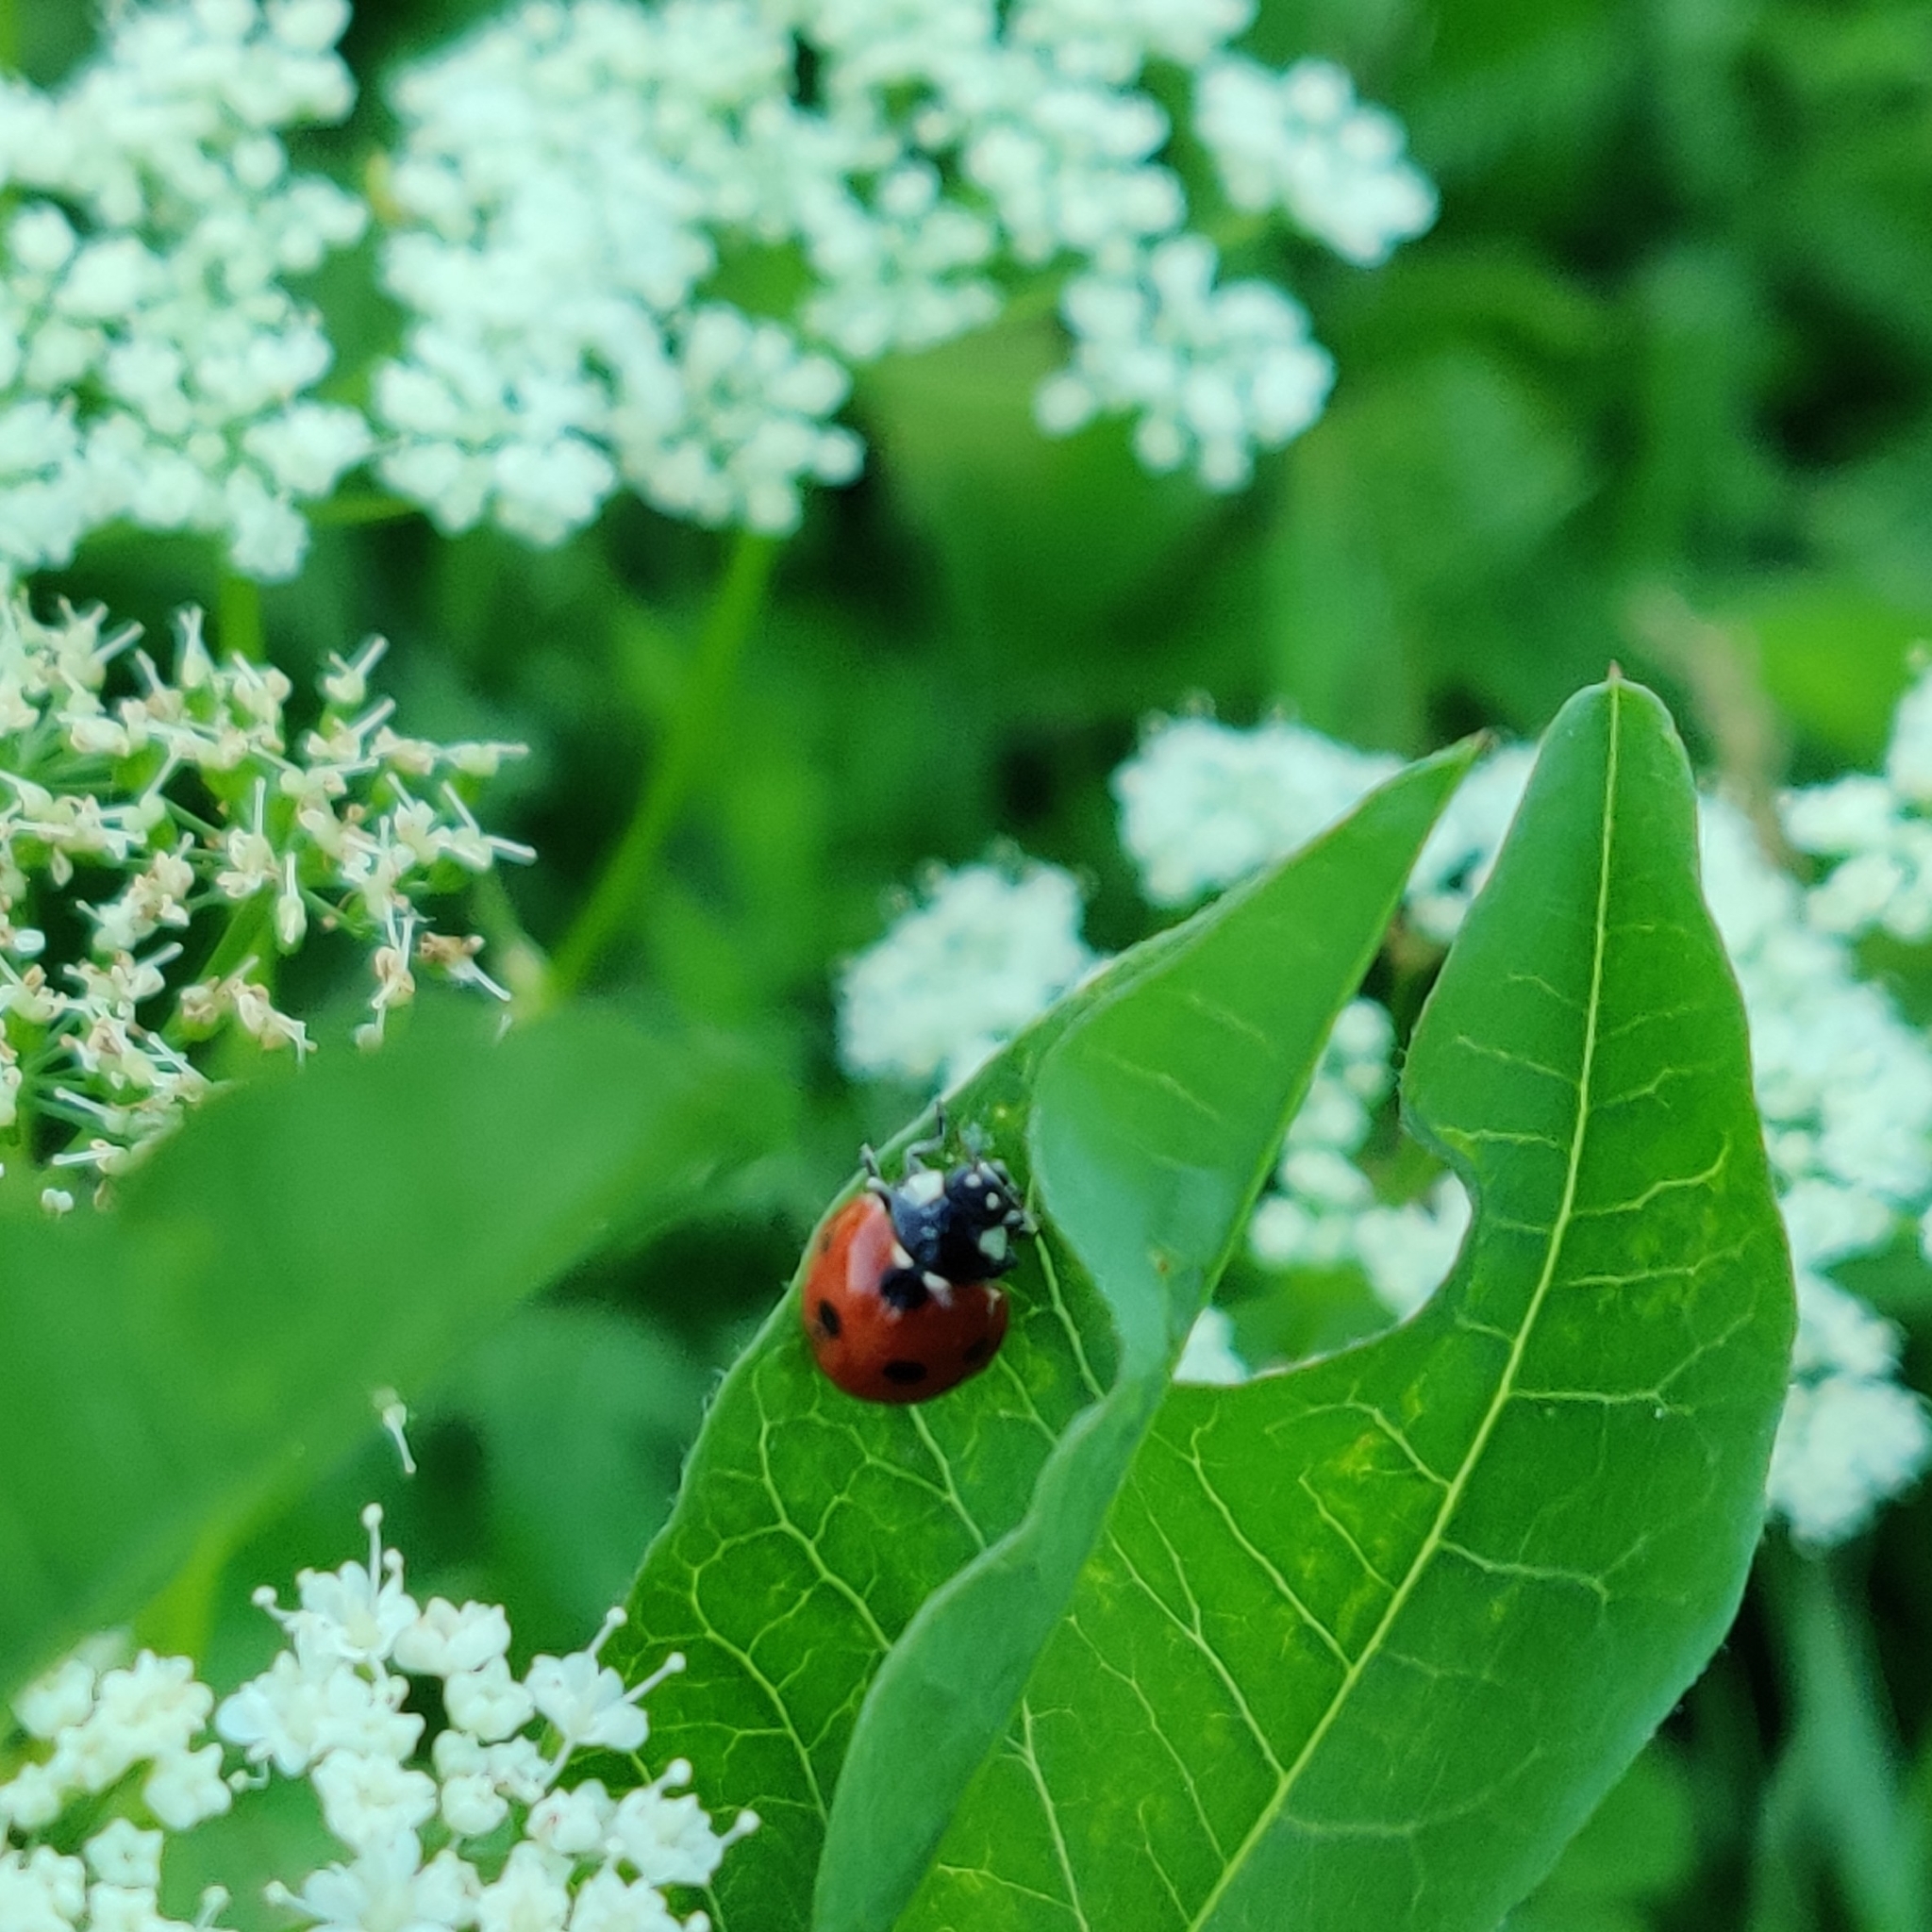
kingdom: Animalia
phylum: Arthropoda
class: Insecta
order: Coleoptera
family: Coccinellidae
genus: Coccinella
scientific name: Coccinella septempunctata
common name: Sevenspotted lady beetle
